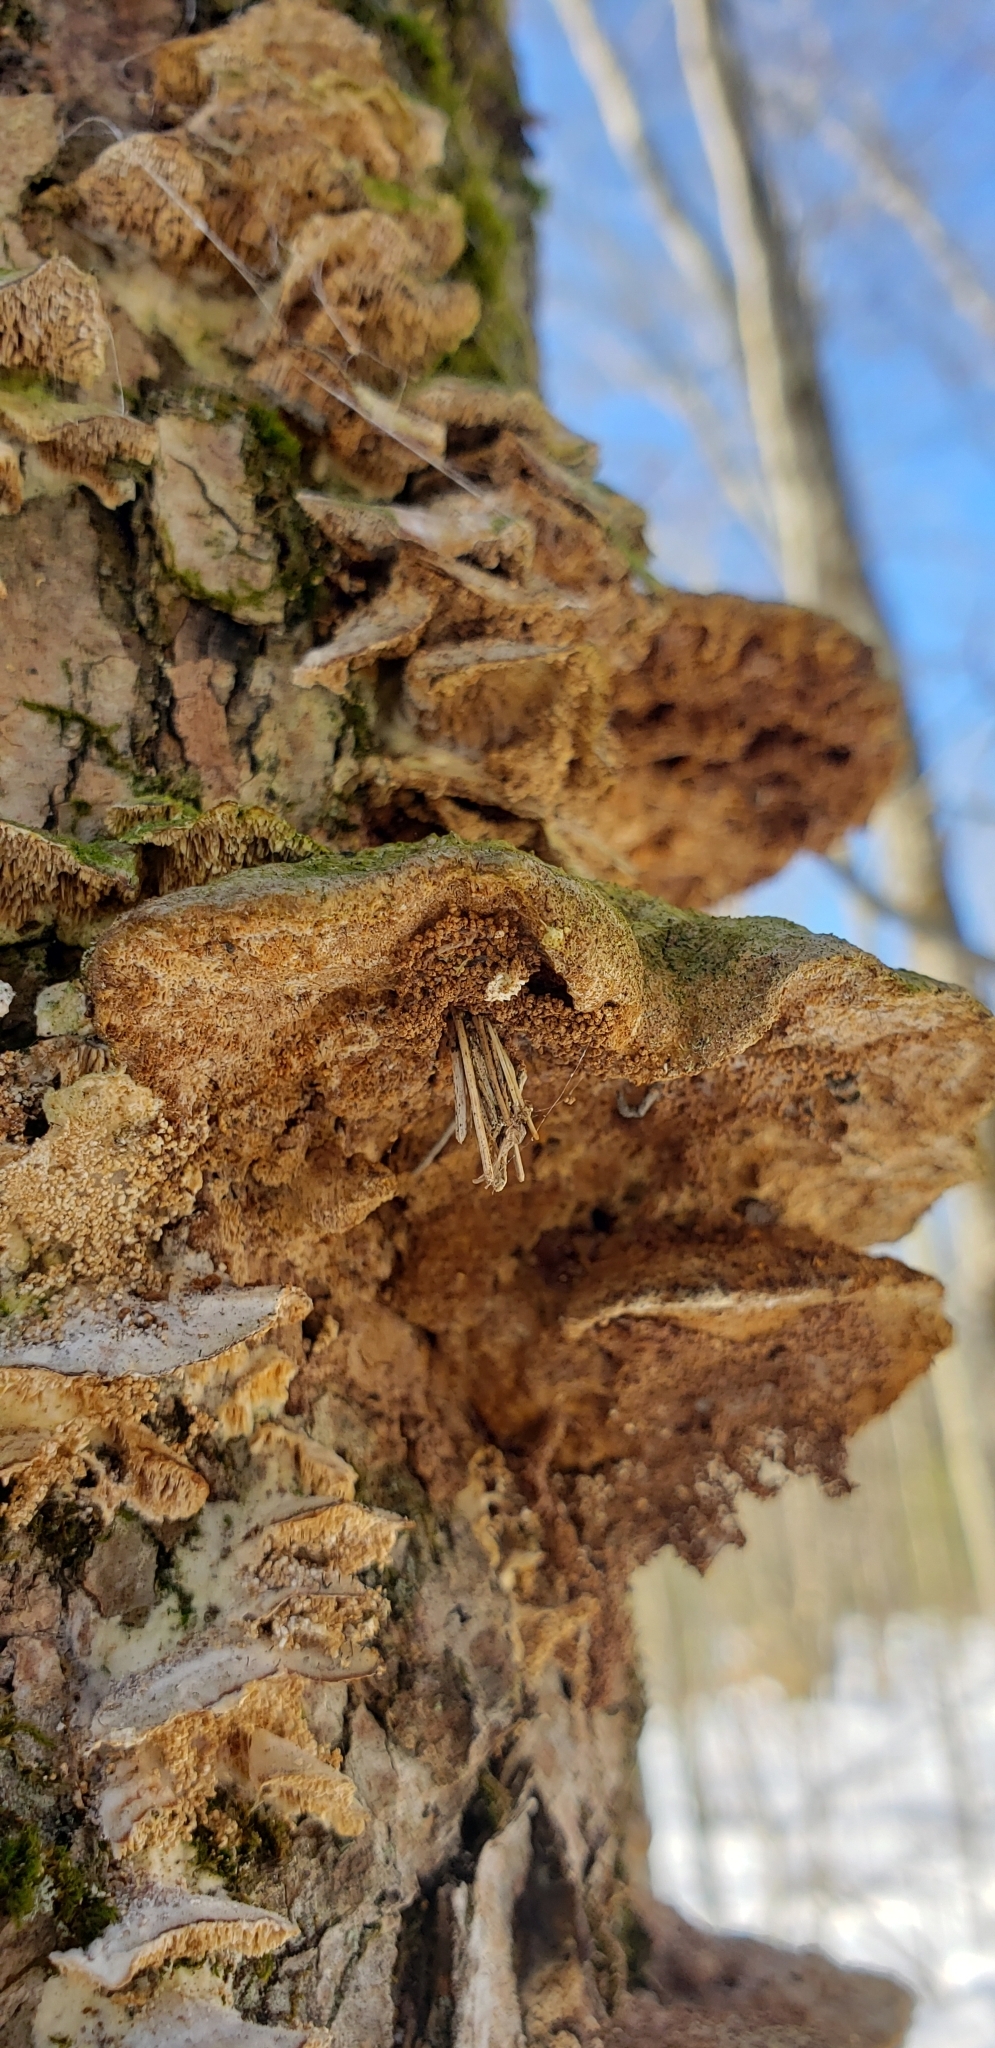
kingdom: Animalia
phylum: Arthropoda
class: Insecta
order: Lepidoptera
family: Psychidae
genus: Psyche
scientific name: Psyche casta
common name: Common sweep
